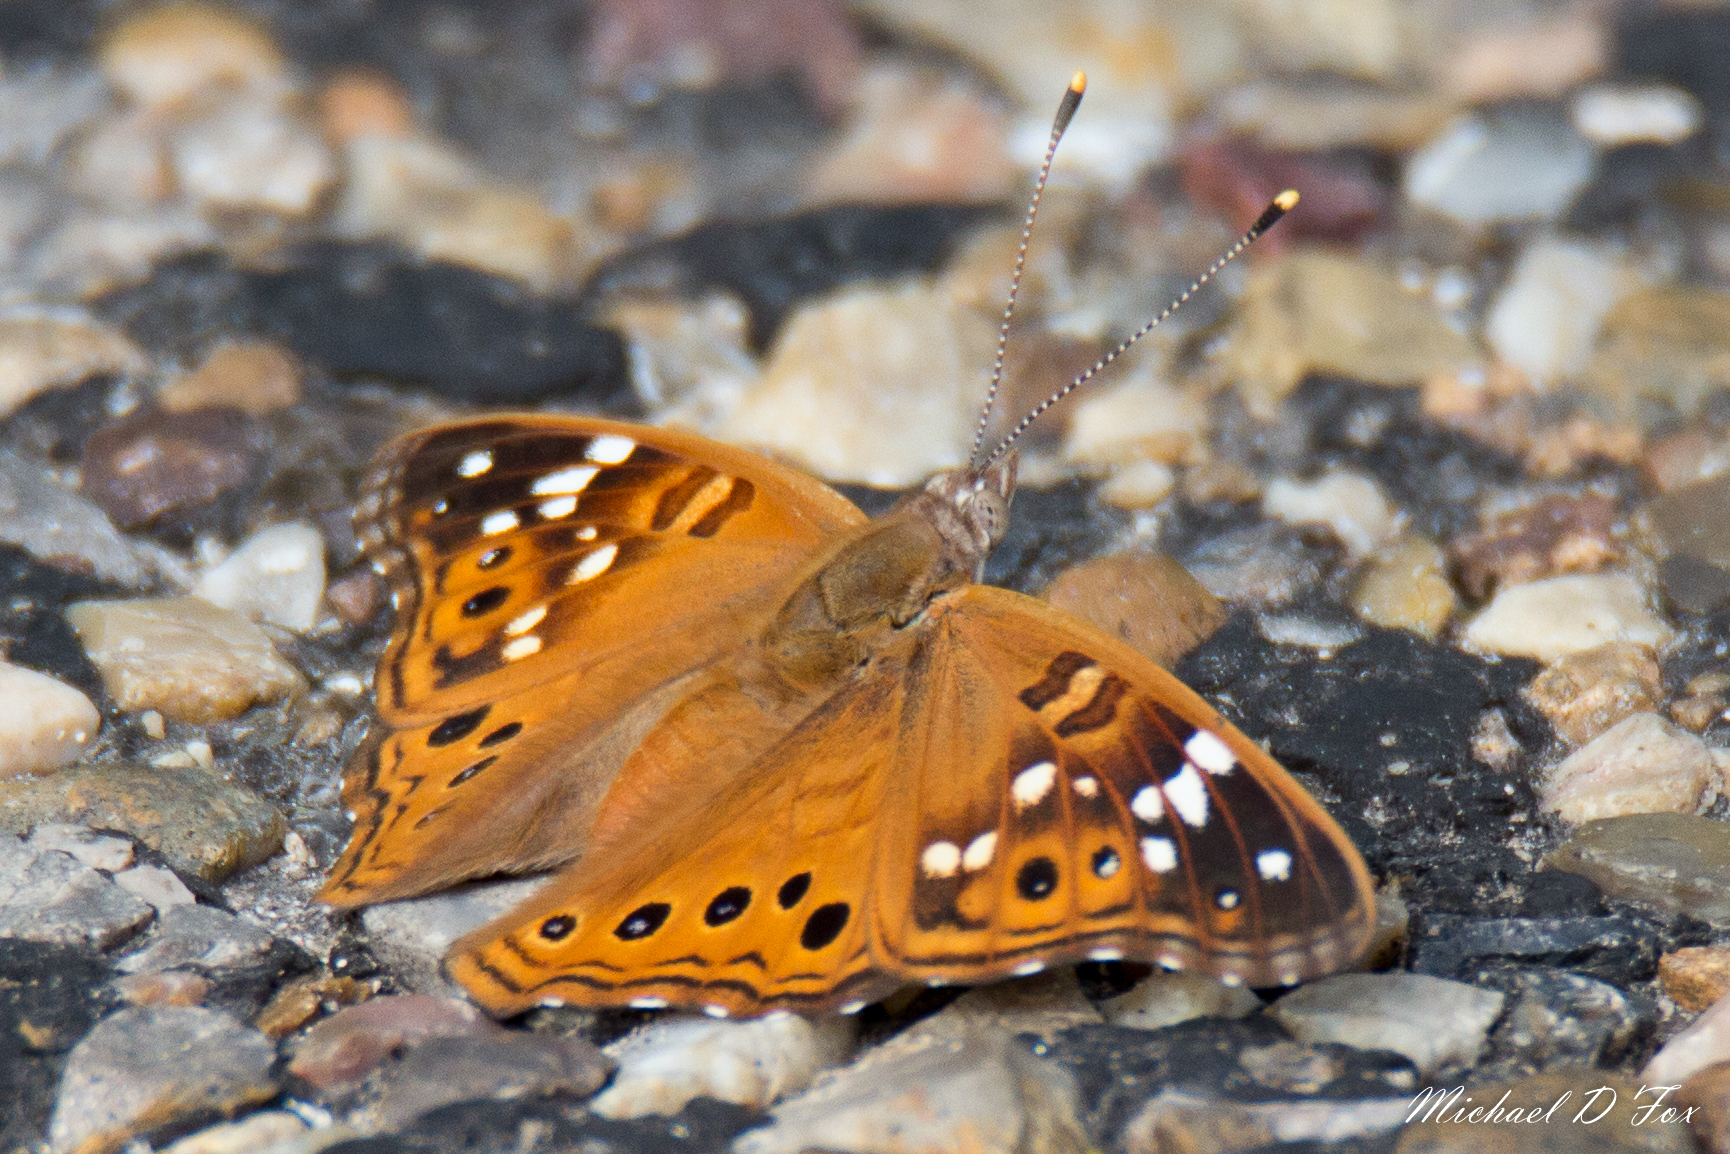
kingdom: Animalia
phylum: Arthropoda
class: Insecta
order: Lepidoptera
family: Nymphalidae
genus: Asterocampa
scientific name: Asterocampa leilia
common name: Empress leilia
